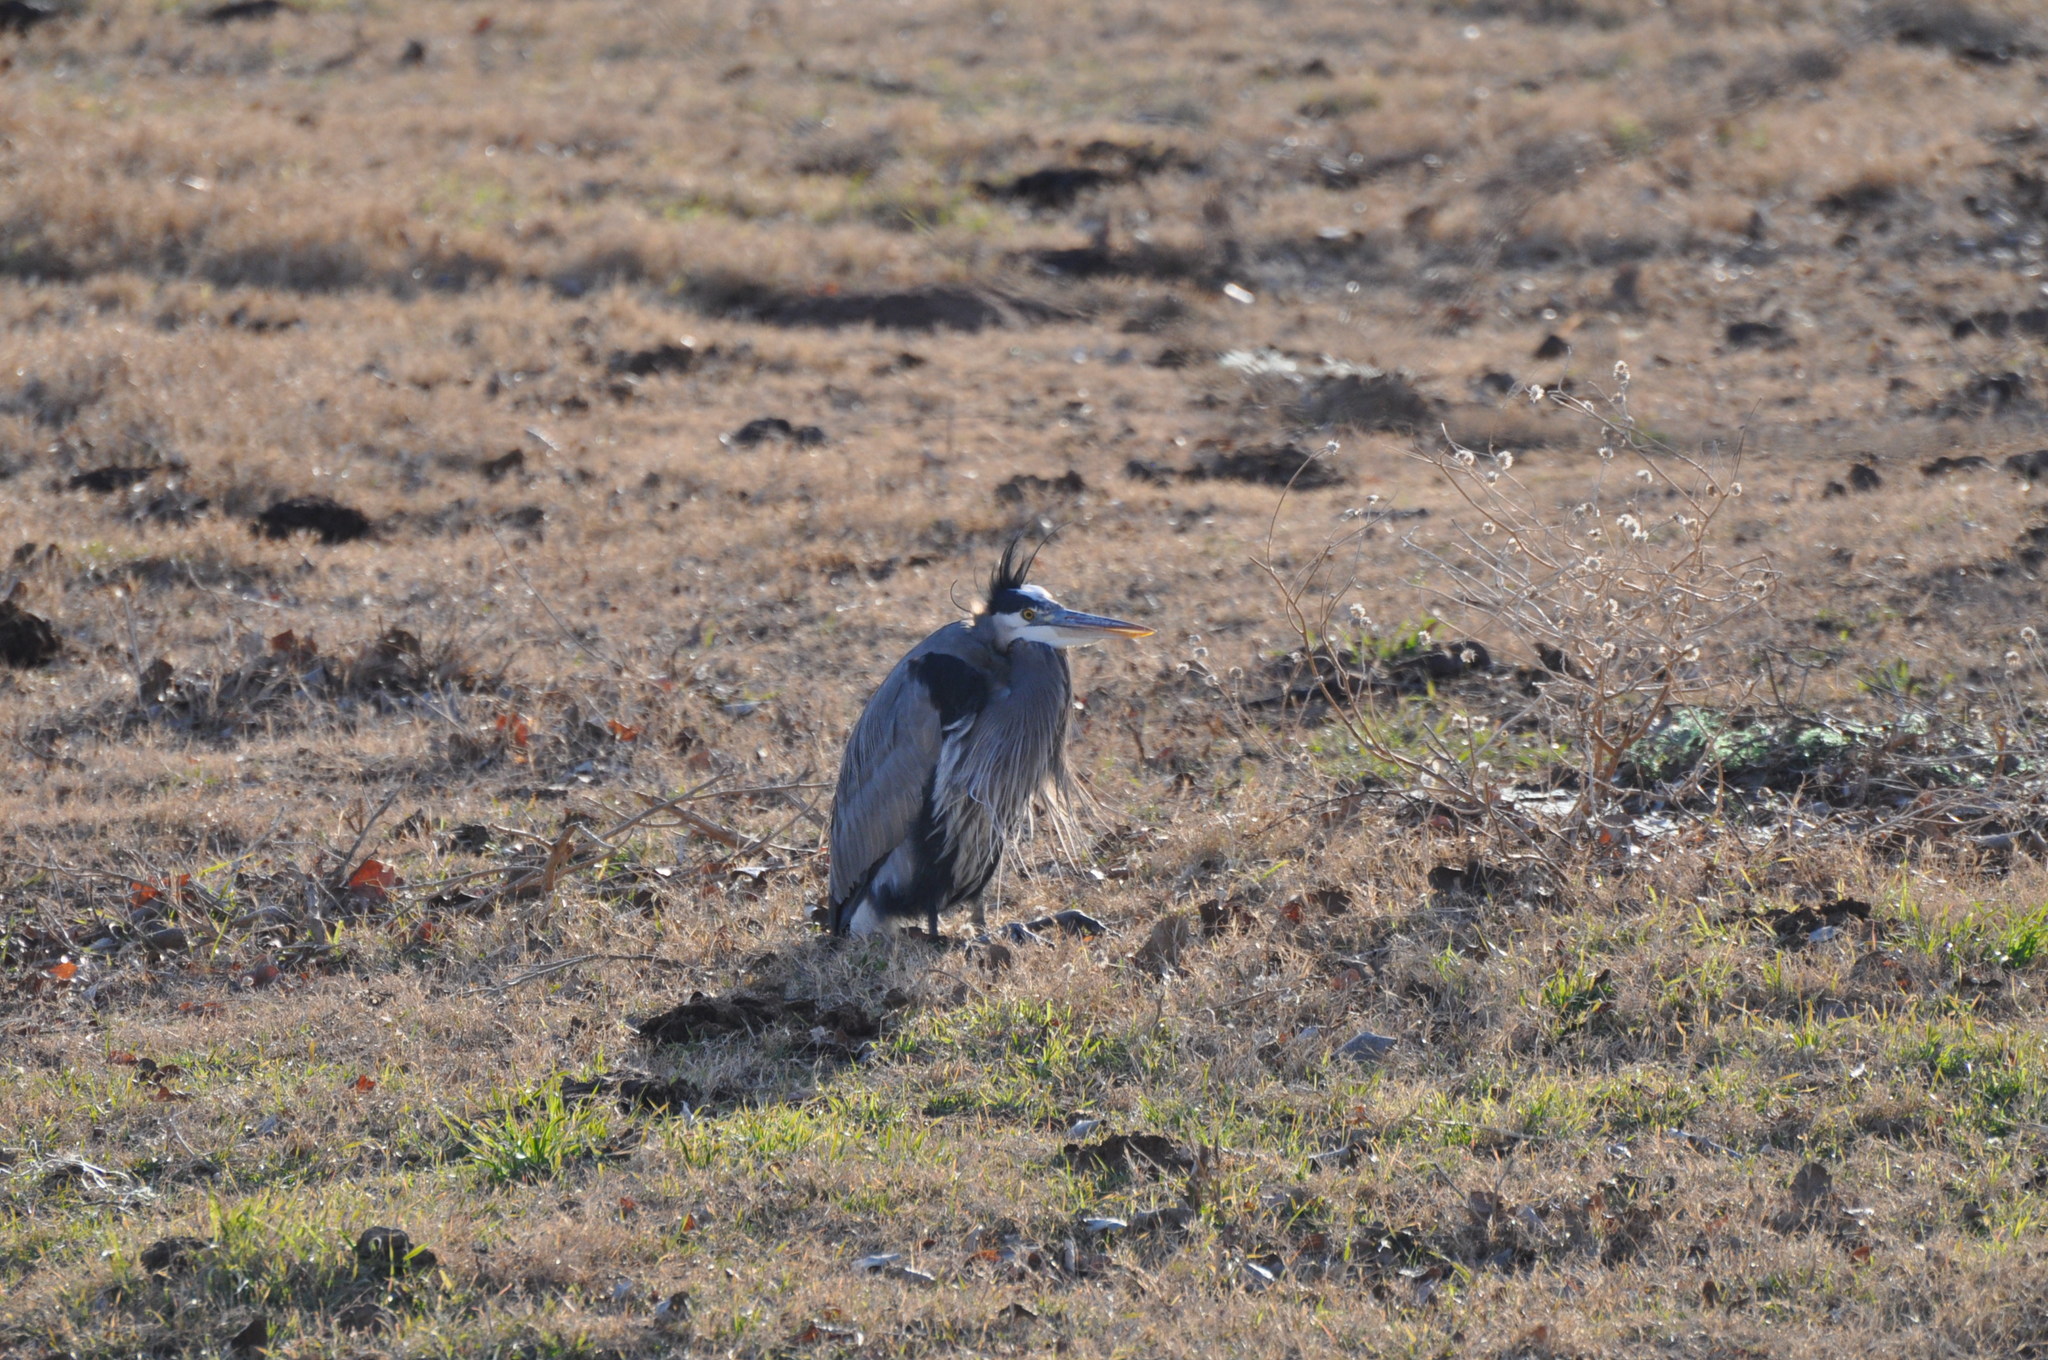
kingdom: Animalia
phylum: Chordata
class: Aves
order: Pelecaniformes
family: Ardeidae
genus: Ardea
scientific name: Ardea herodias
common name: Great blue heron
